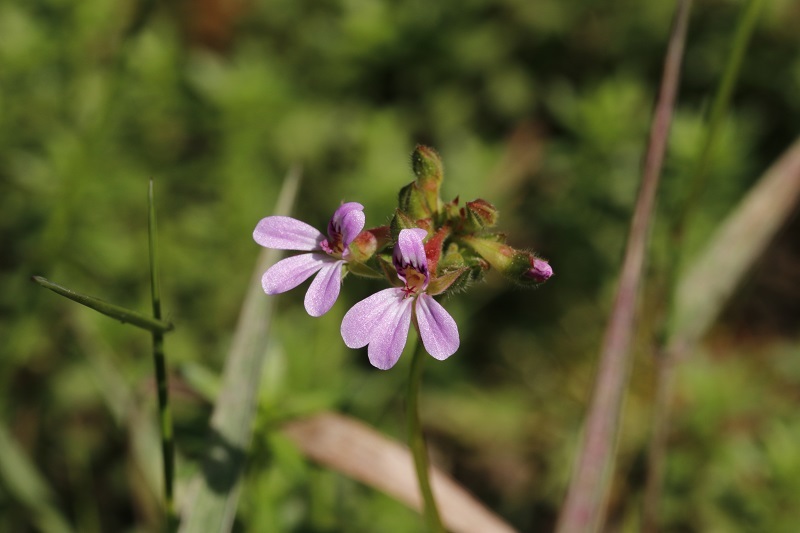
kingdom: Plantae
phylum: Tracheophyta
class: Magnoliopsida
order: Geraniales
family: Geraniaceae
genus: Pelargonium
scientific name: Pelargonium grossularioides
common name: Gooseberry geranium
